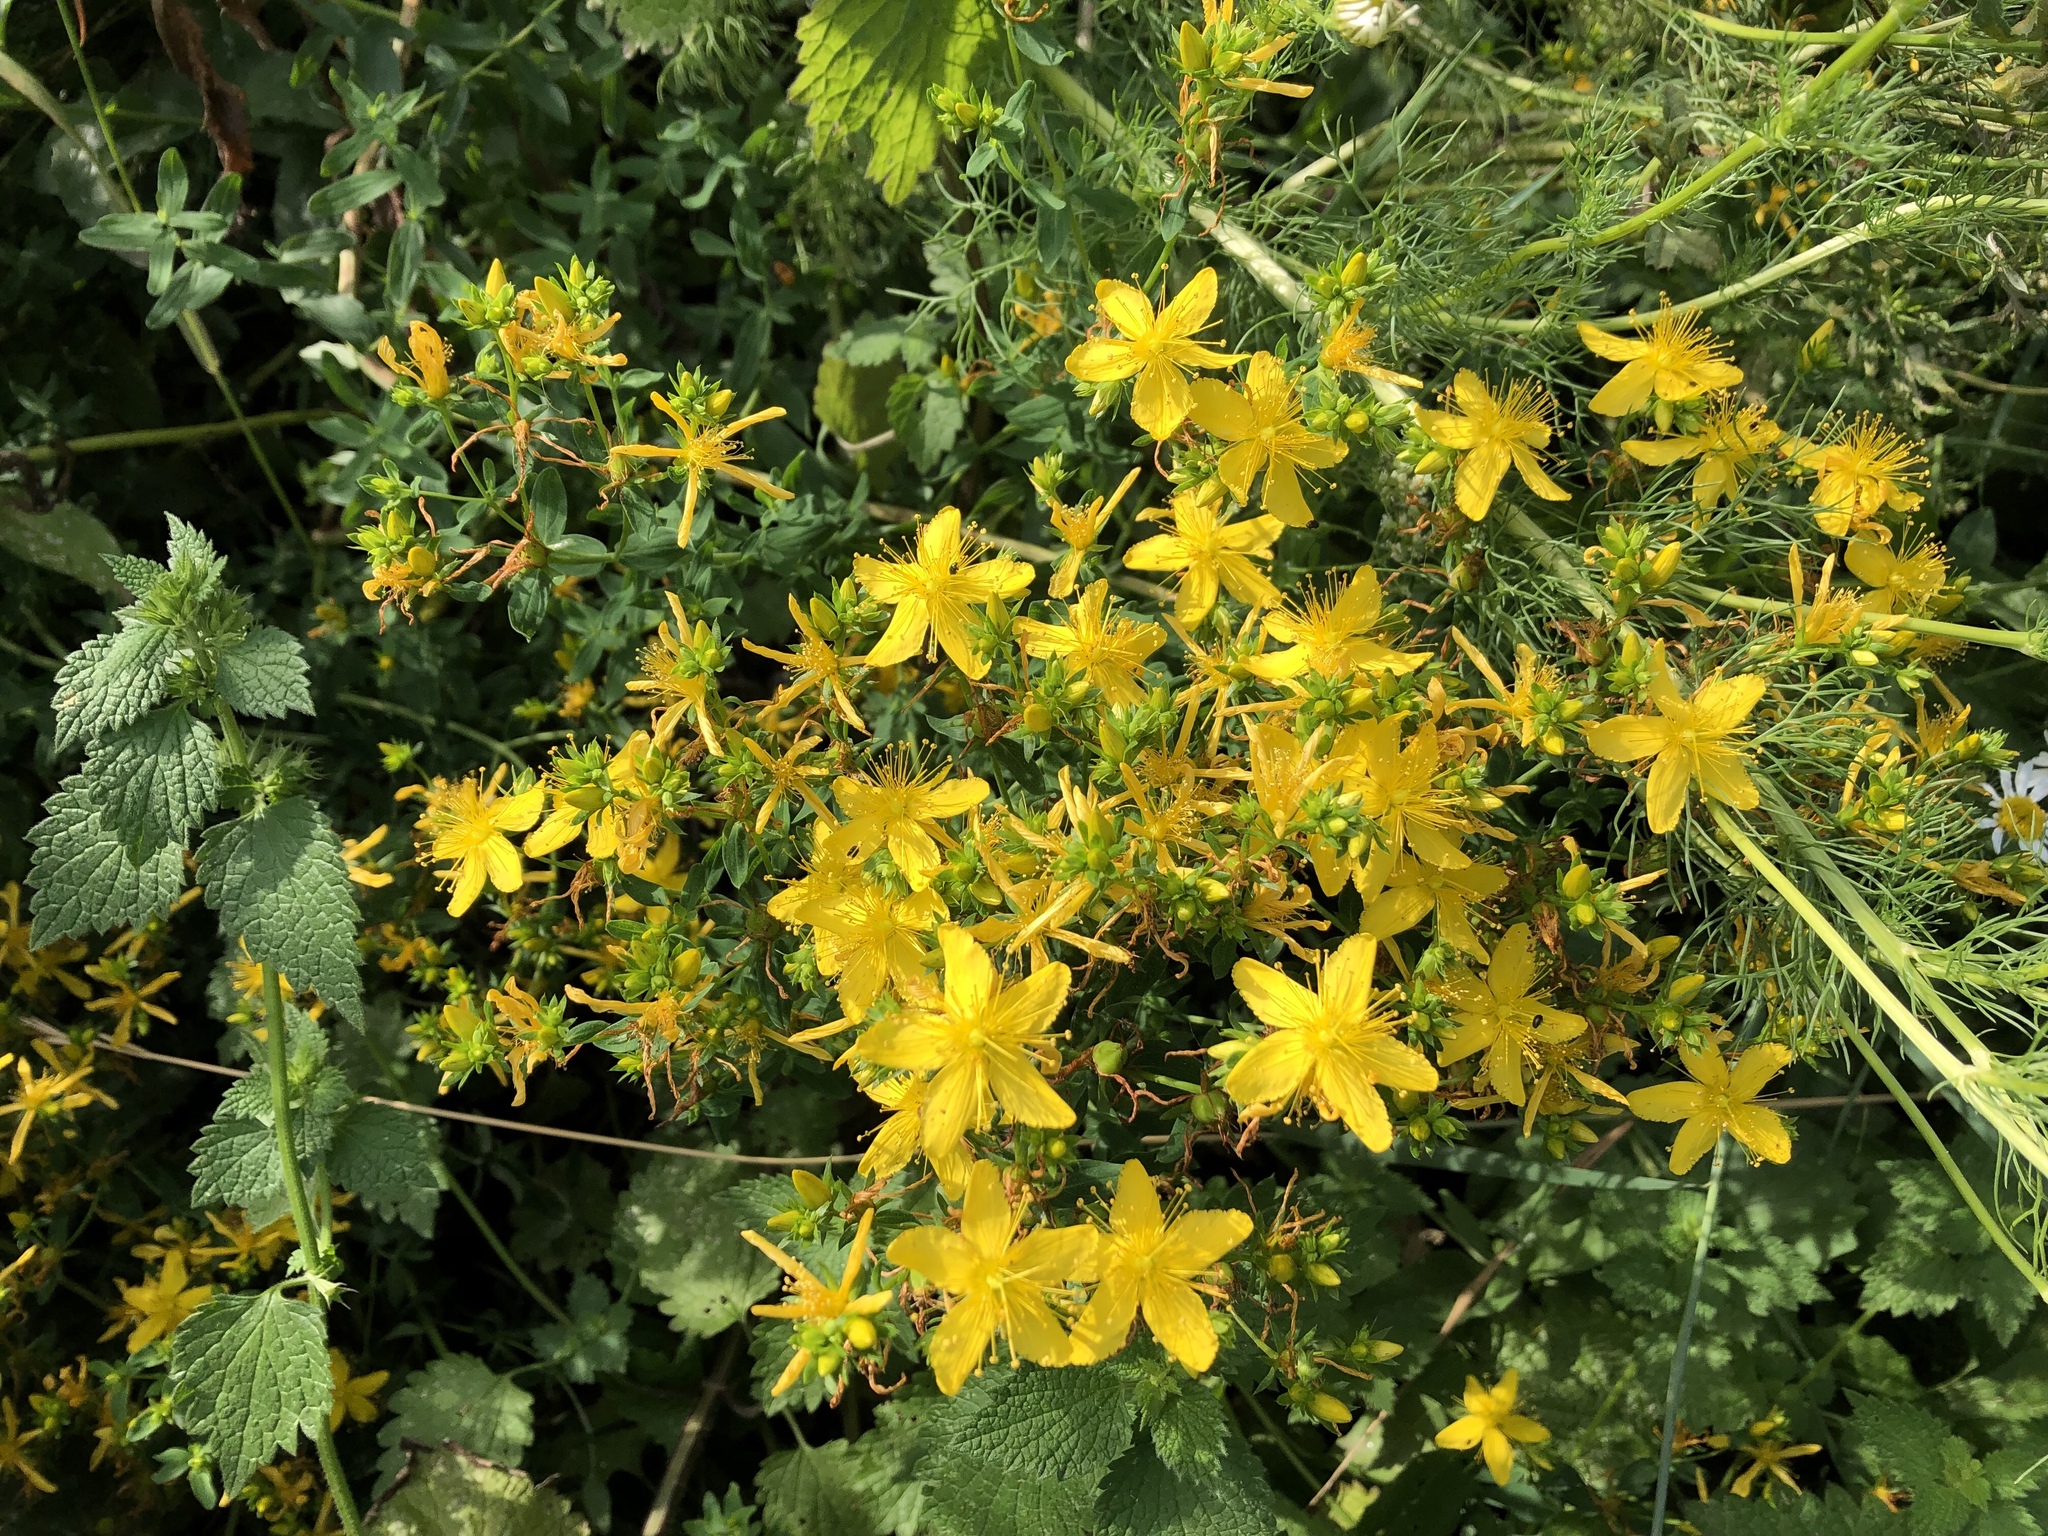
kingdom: Plantae
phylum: Tracheophyta
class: Magnoliopsida
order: Malpighiales
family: Hypericaceae
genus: Hypericum
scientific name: Hypericum perforatum
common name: Common st. johnswort
